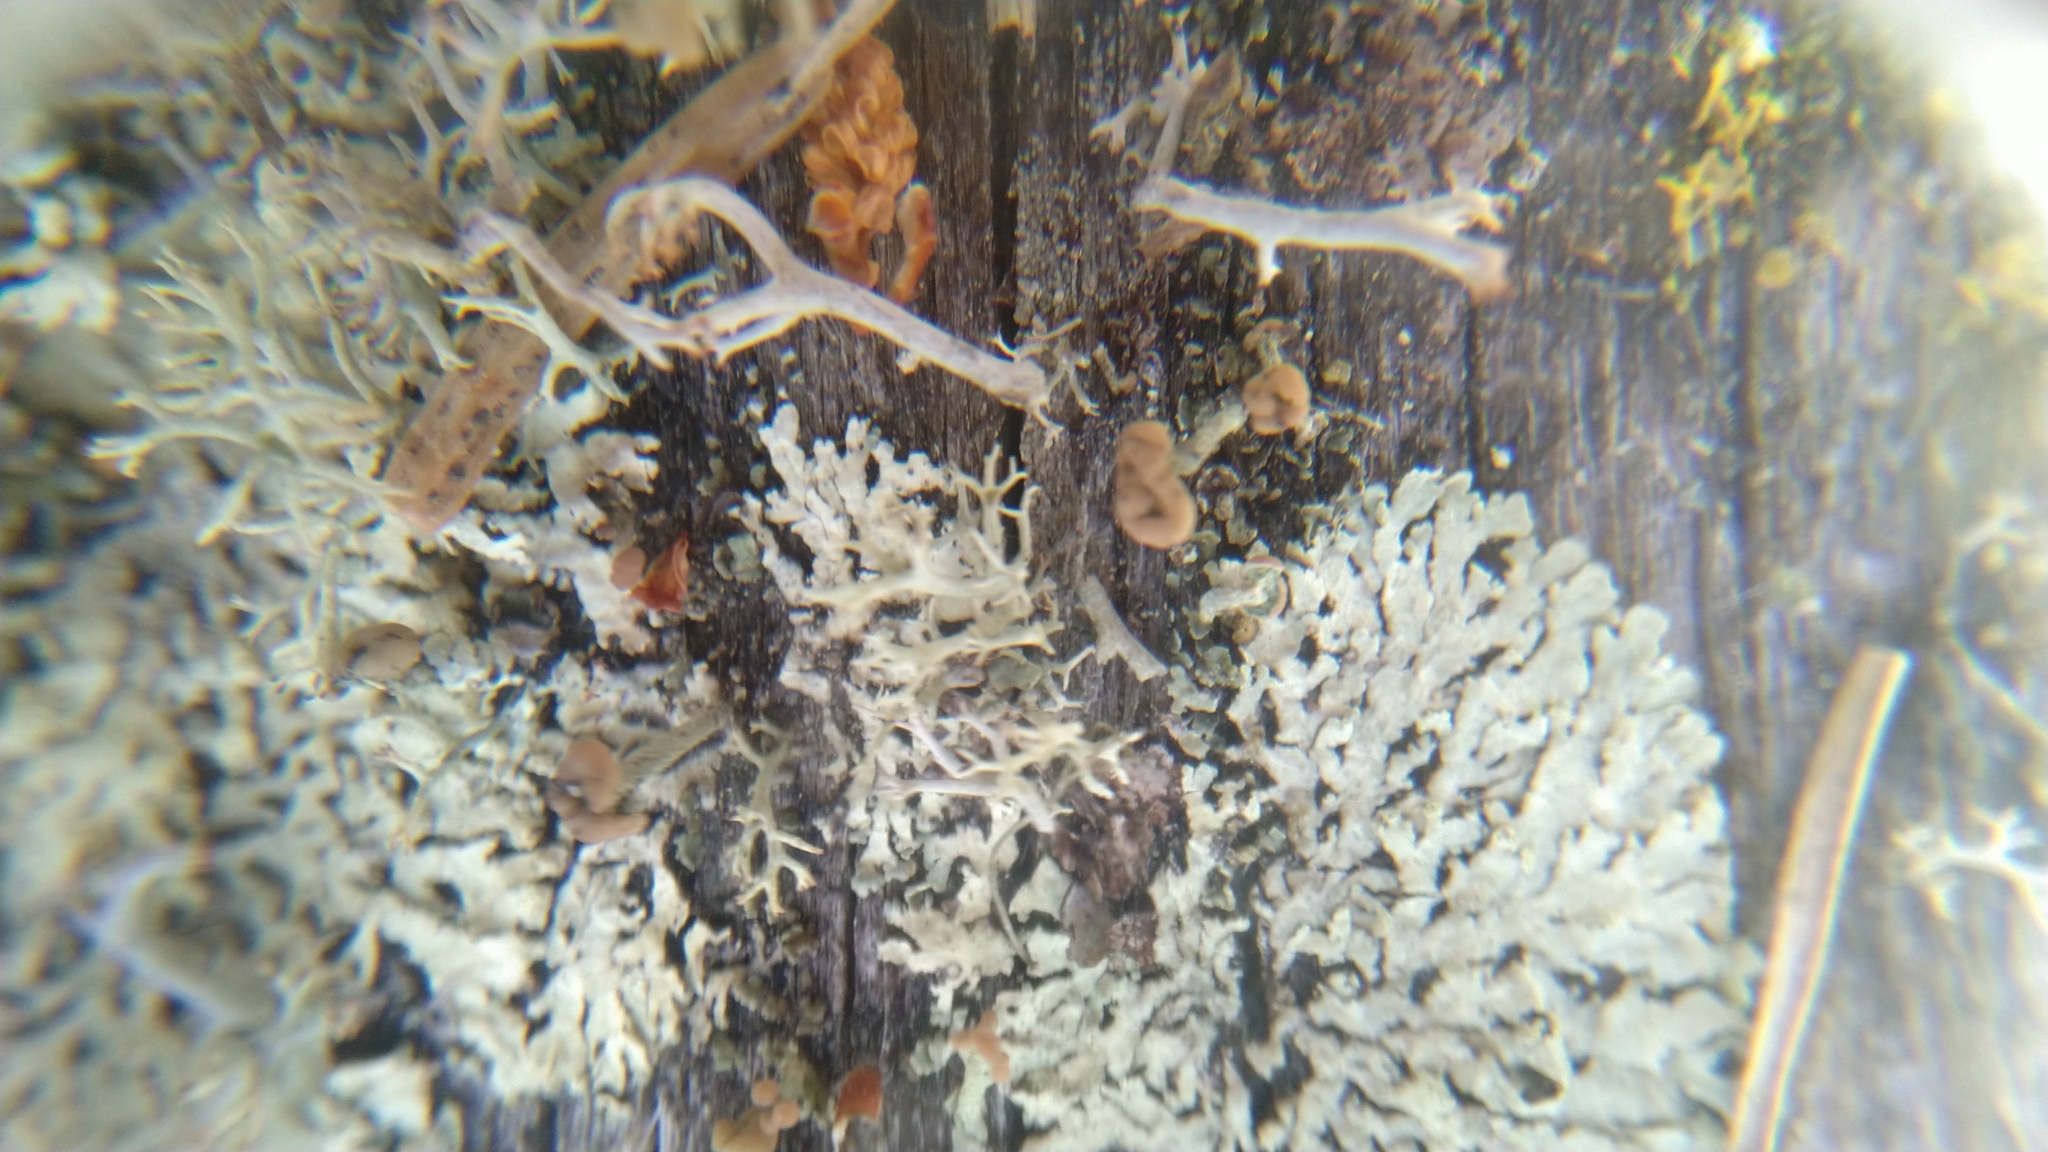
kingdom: Fungi
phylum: Ascomycota
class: Lecanoromycetes
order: Lecanorales
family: Cladoniaceae
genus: Cladonia
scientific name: Cladonia botrytes
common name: Stump lichen
